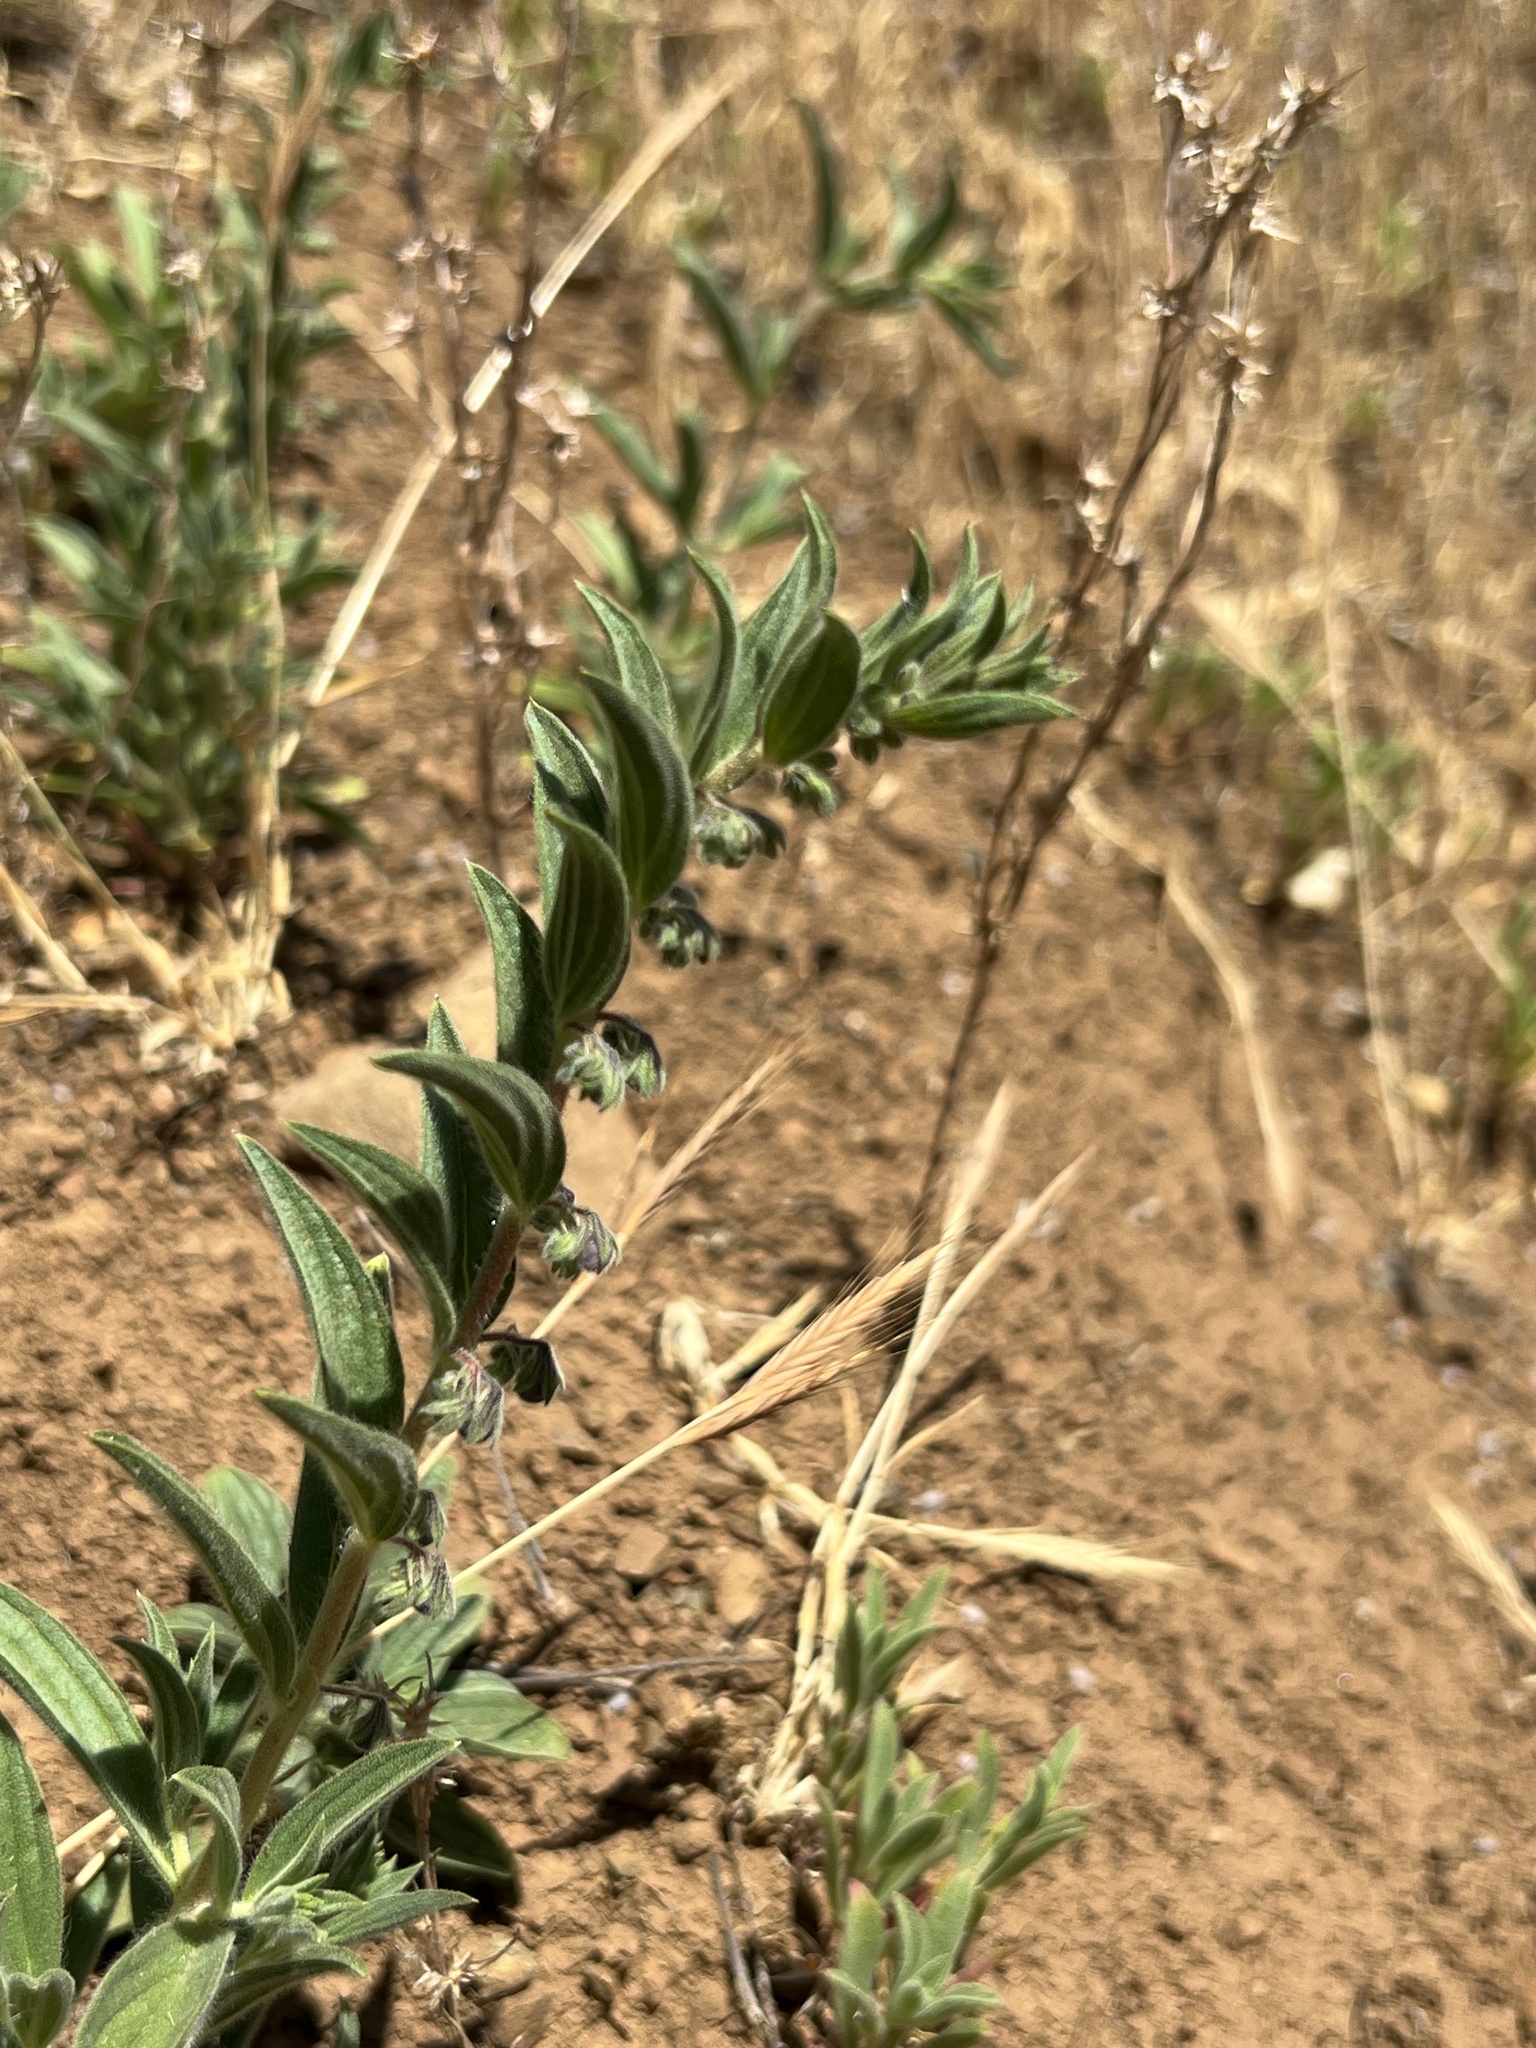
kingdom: Plantae
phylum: Tracheophyta
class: Magnoliopsida
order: Lamiales
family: Lamiaceae
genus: Trichostema
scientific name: Trichostema lanceolatum
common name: Vinegar-weed
